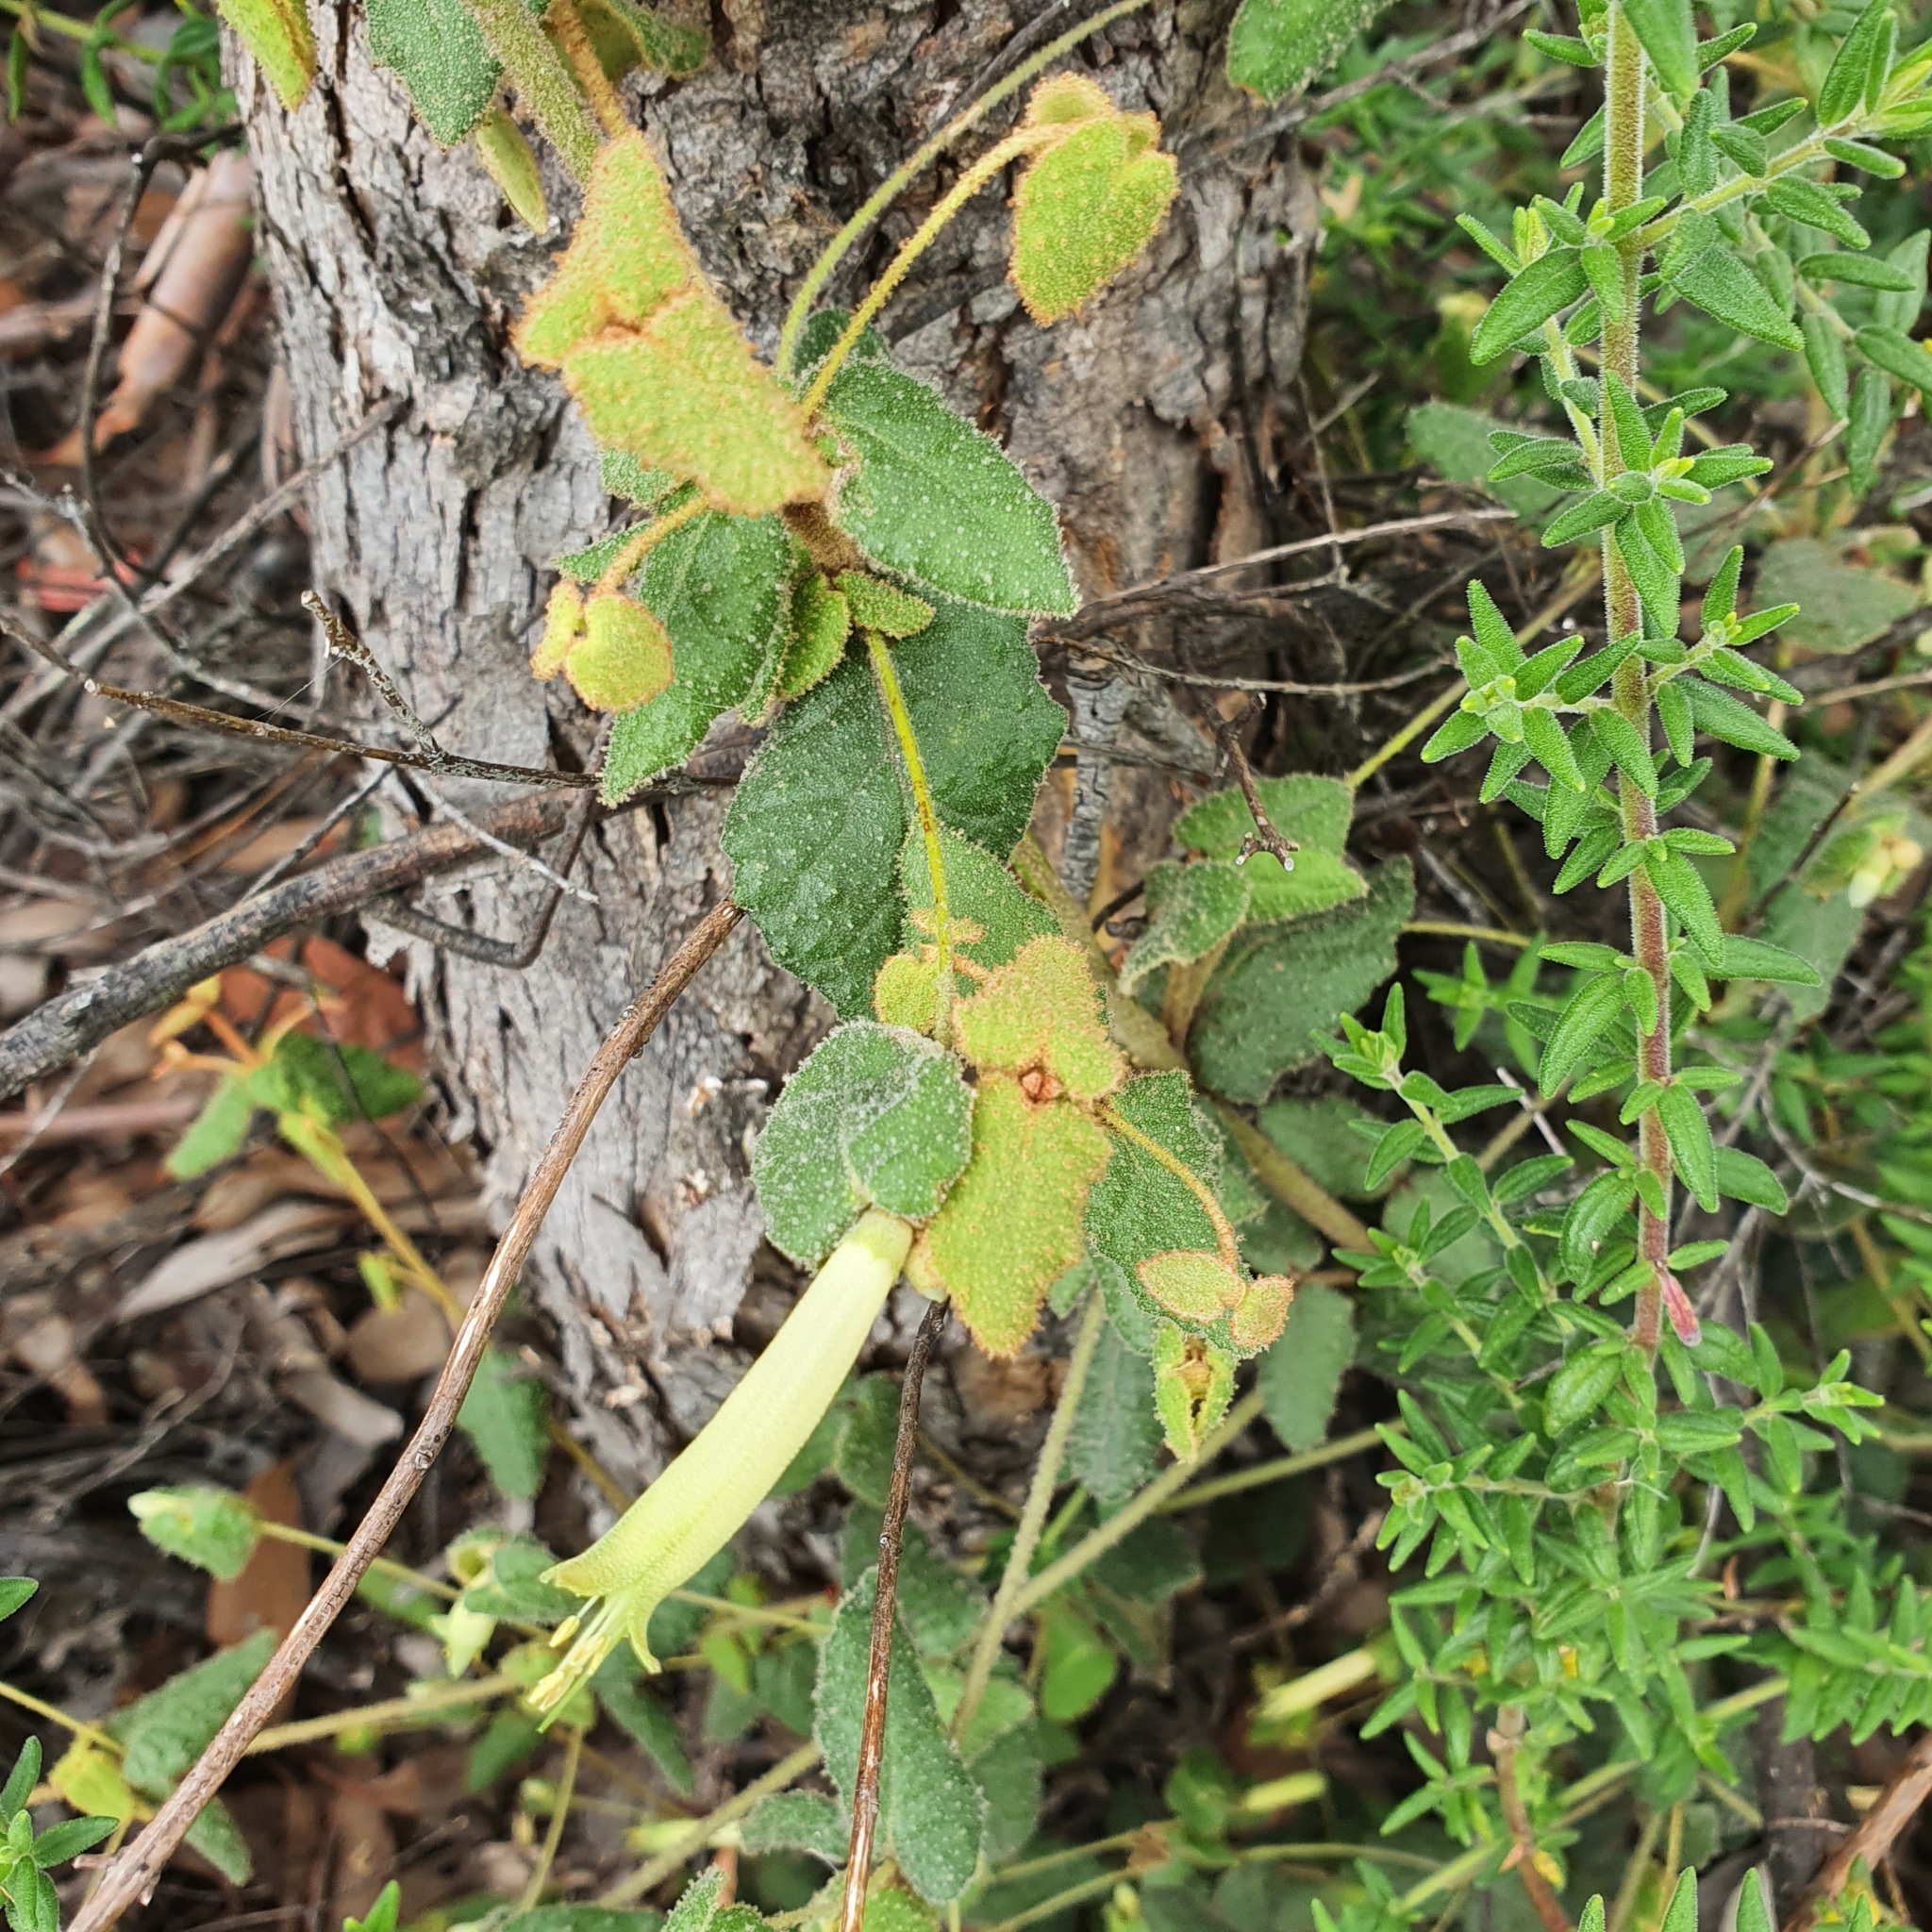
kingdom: Plantae
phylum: Tracheophyta
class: Magnoliopsida
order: Sapindales
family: Rutaceae
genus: Correa
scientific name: Correa reflexa
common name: Common correa
